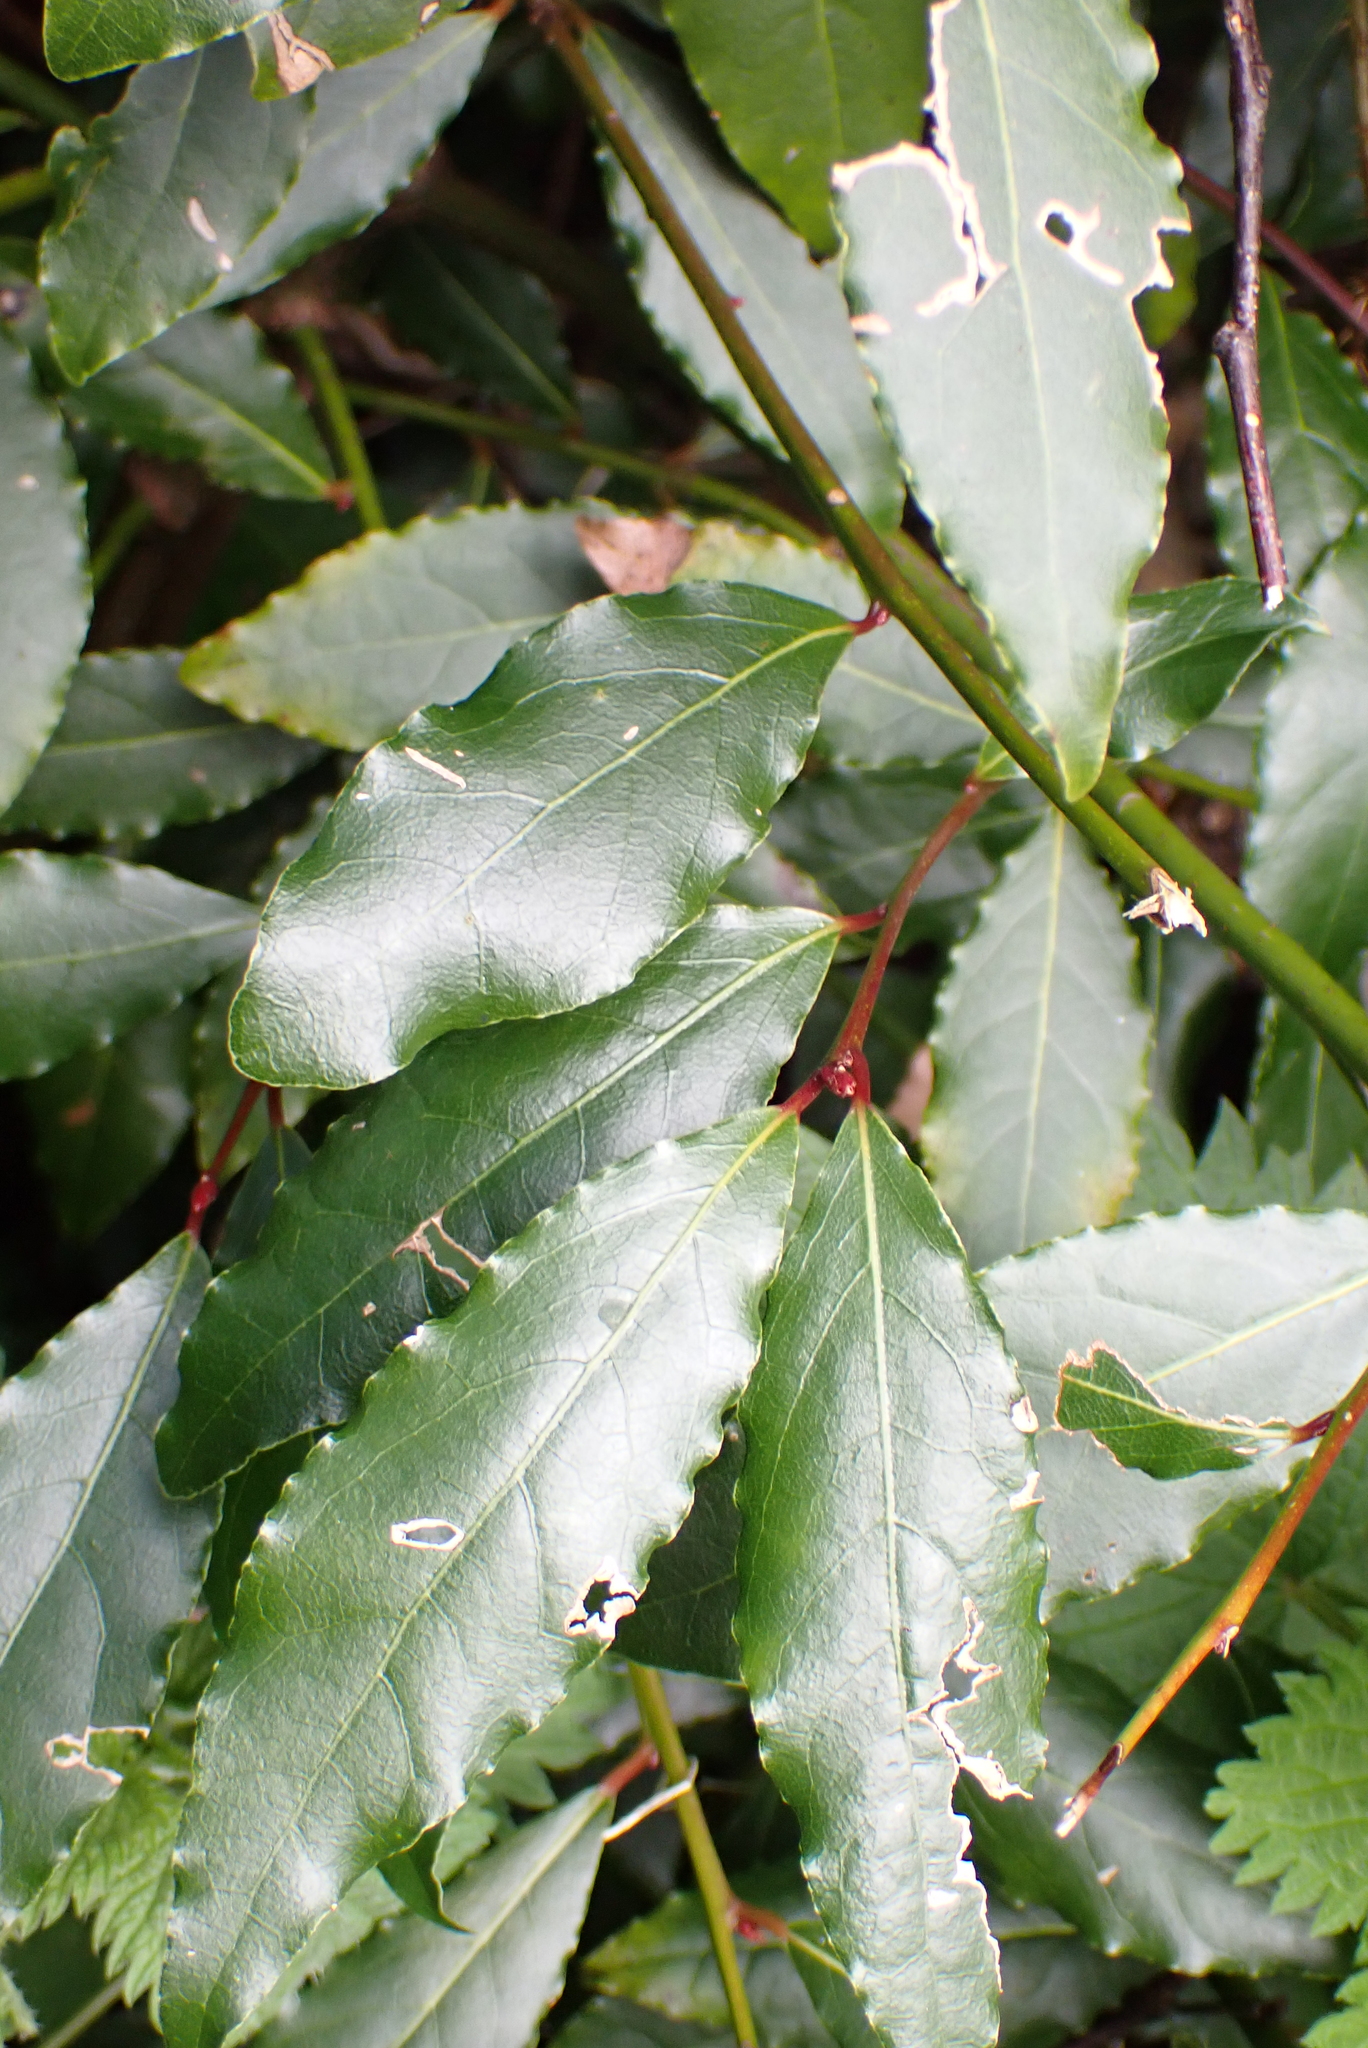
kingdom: Plantae
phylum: Tracheophyta
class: Magnoliopsida
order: Laurales
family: Lauraceae
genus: Laurus
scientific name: Laurus nobilis
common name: Bay
